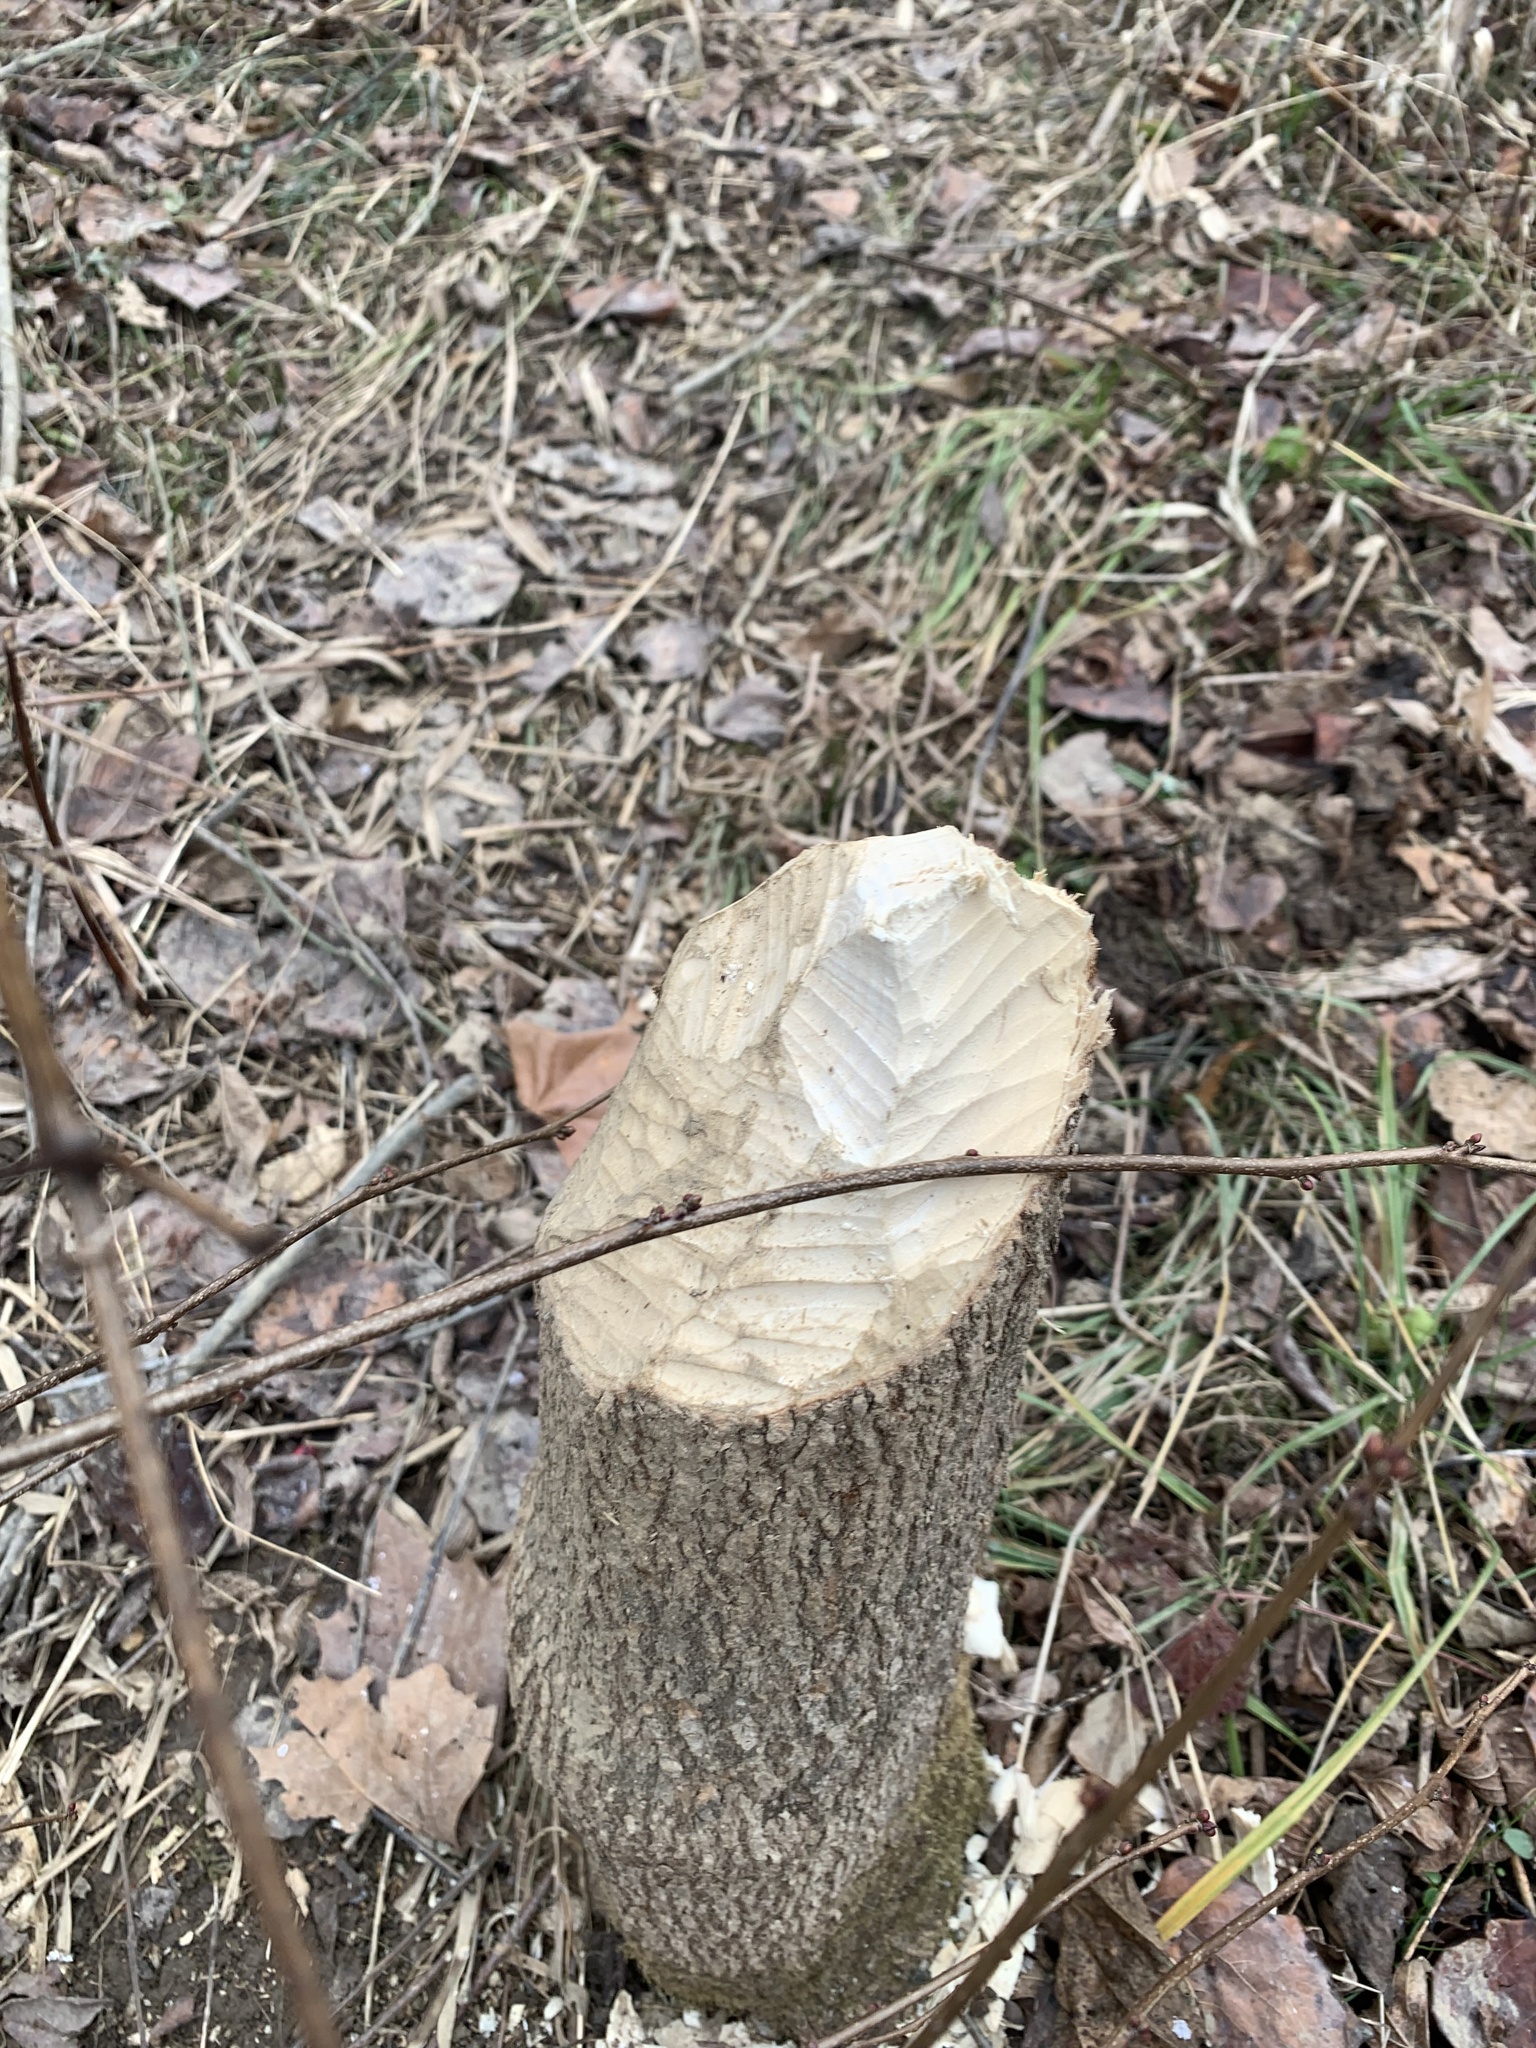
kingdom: Animalia
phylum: Chordata
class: Mammalia
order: Rodentia
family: Castoridae
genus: Castor
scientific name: Castor canadensis
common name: American beaver
